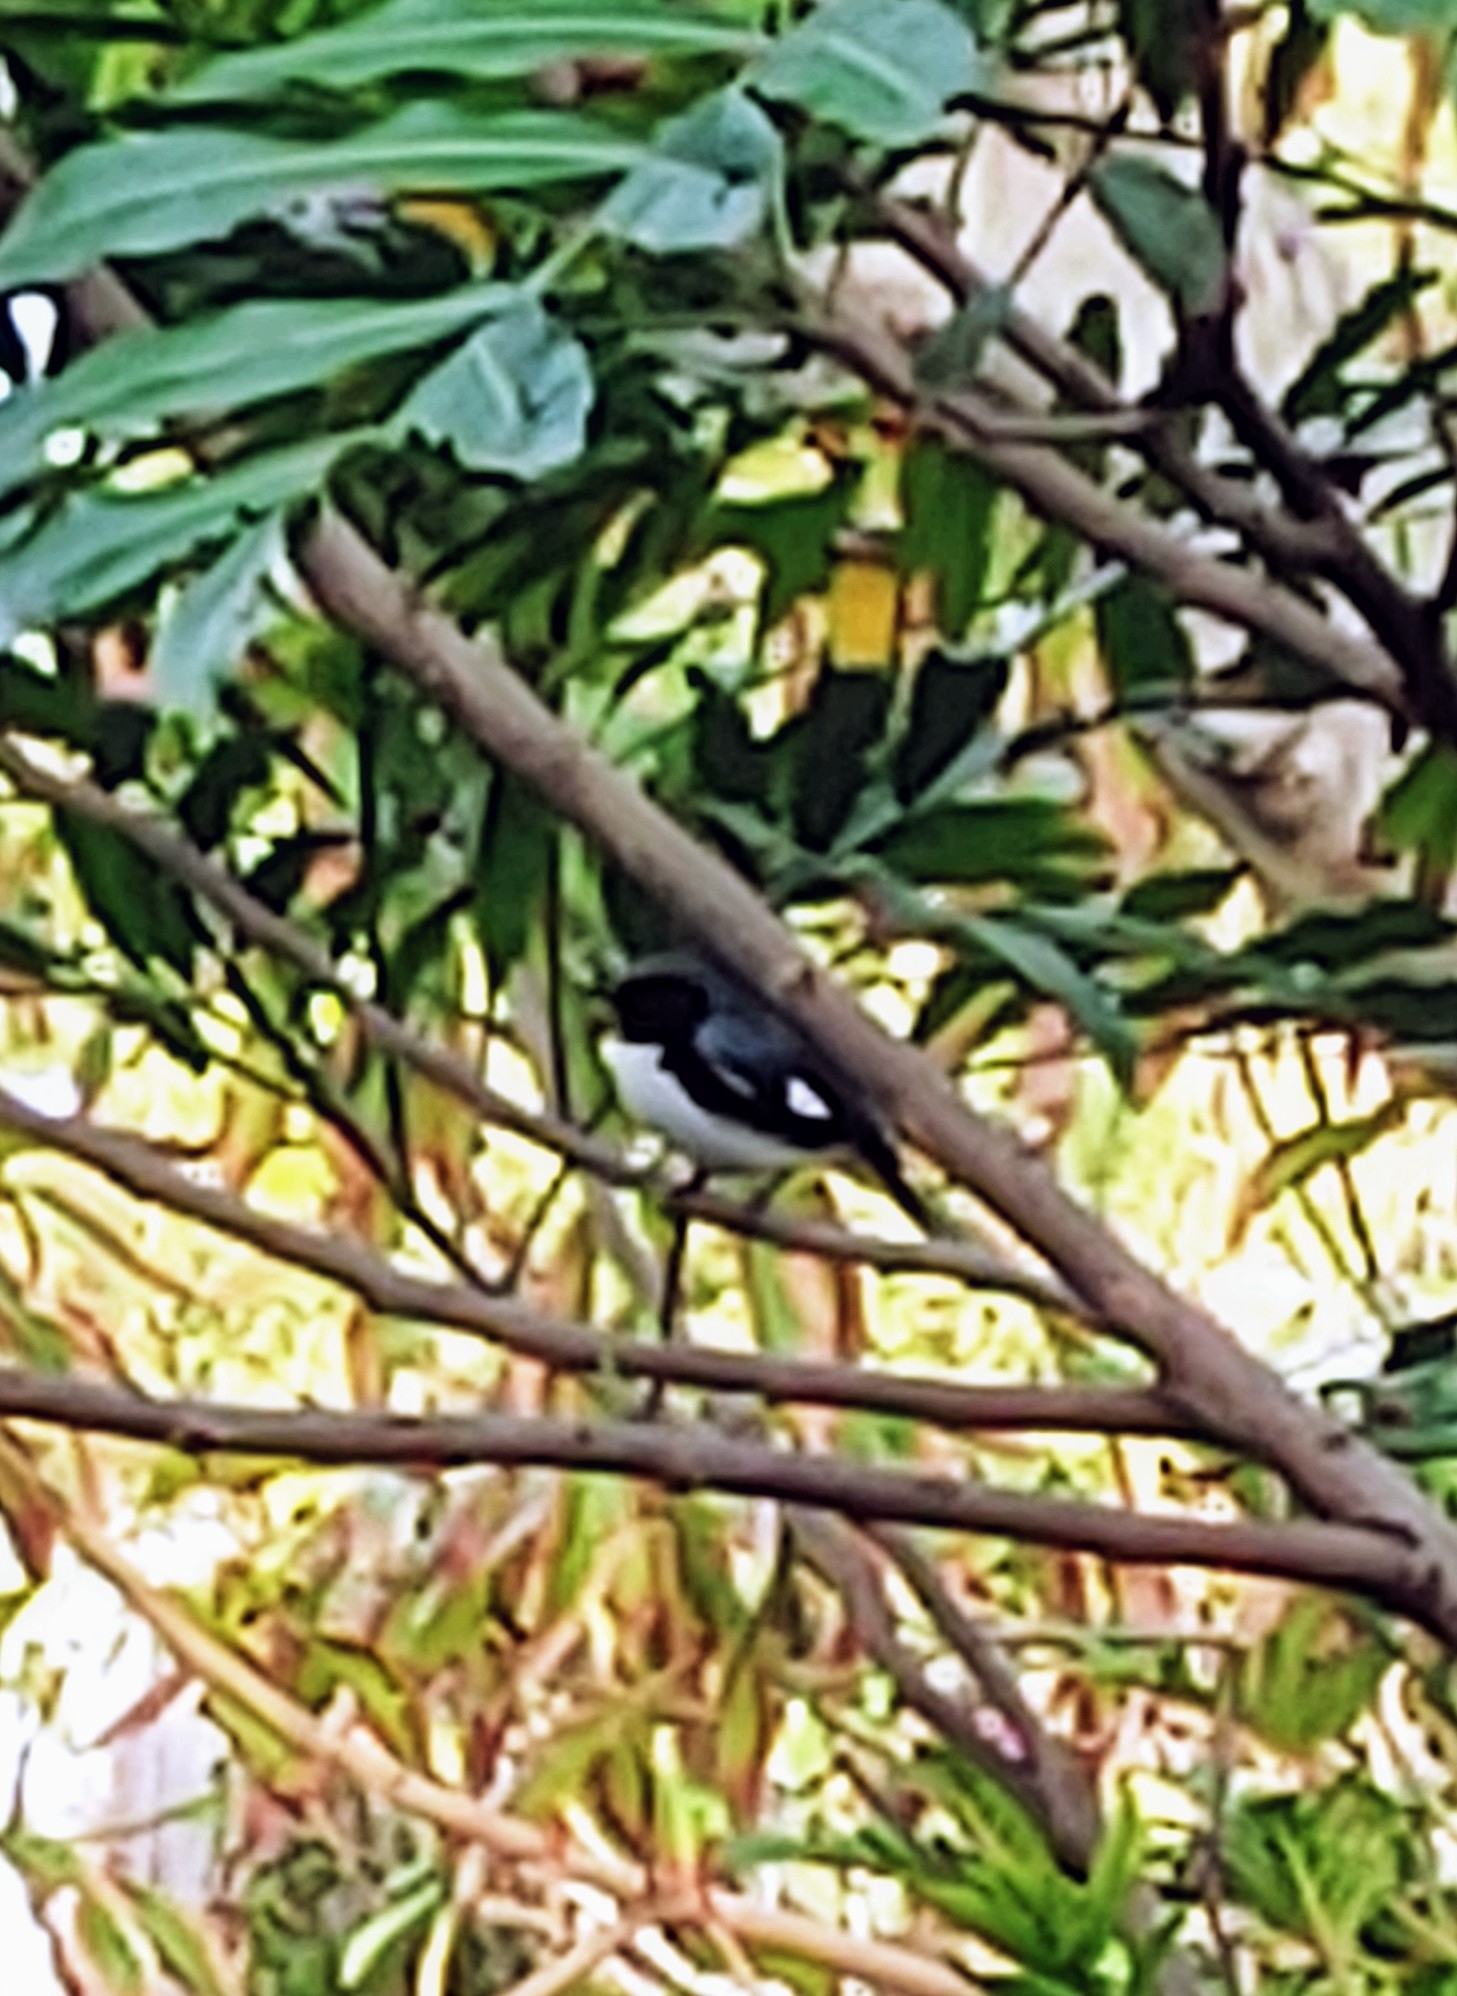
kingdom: Animalia
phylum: Chordata
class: Aves
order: Passeriformes
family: Parulidae
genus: Setophaga
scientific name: Setophaga caerulescens
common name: Black-throated blue warbler
